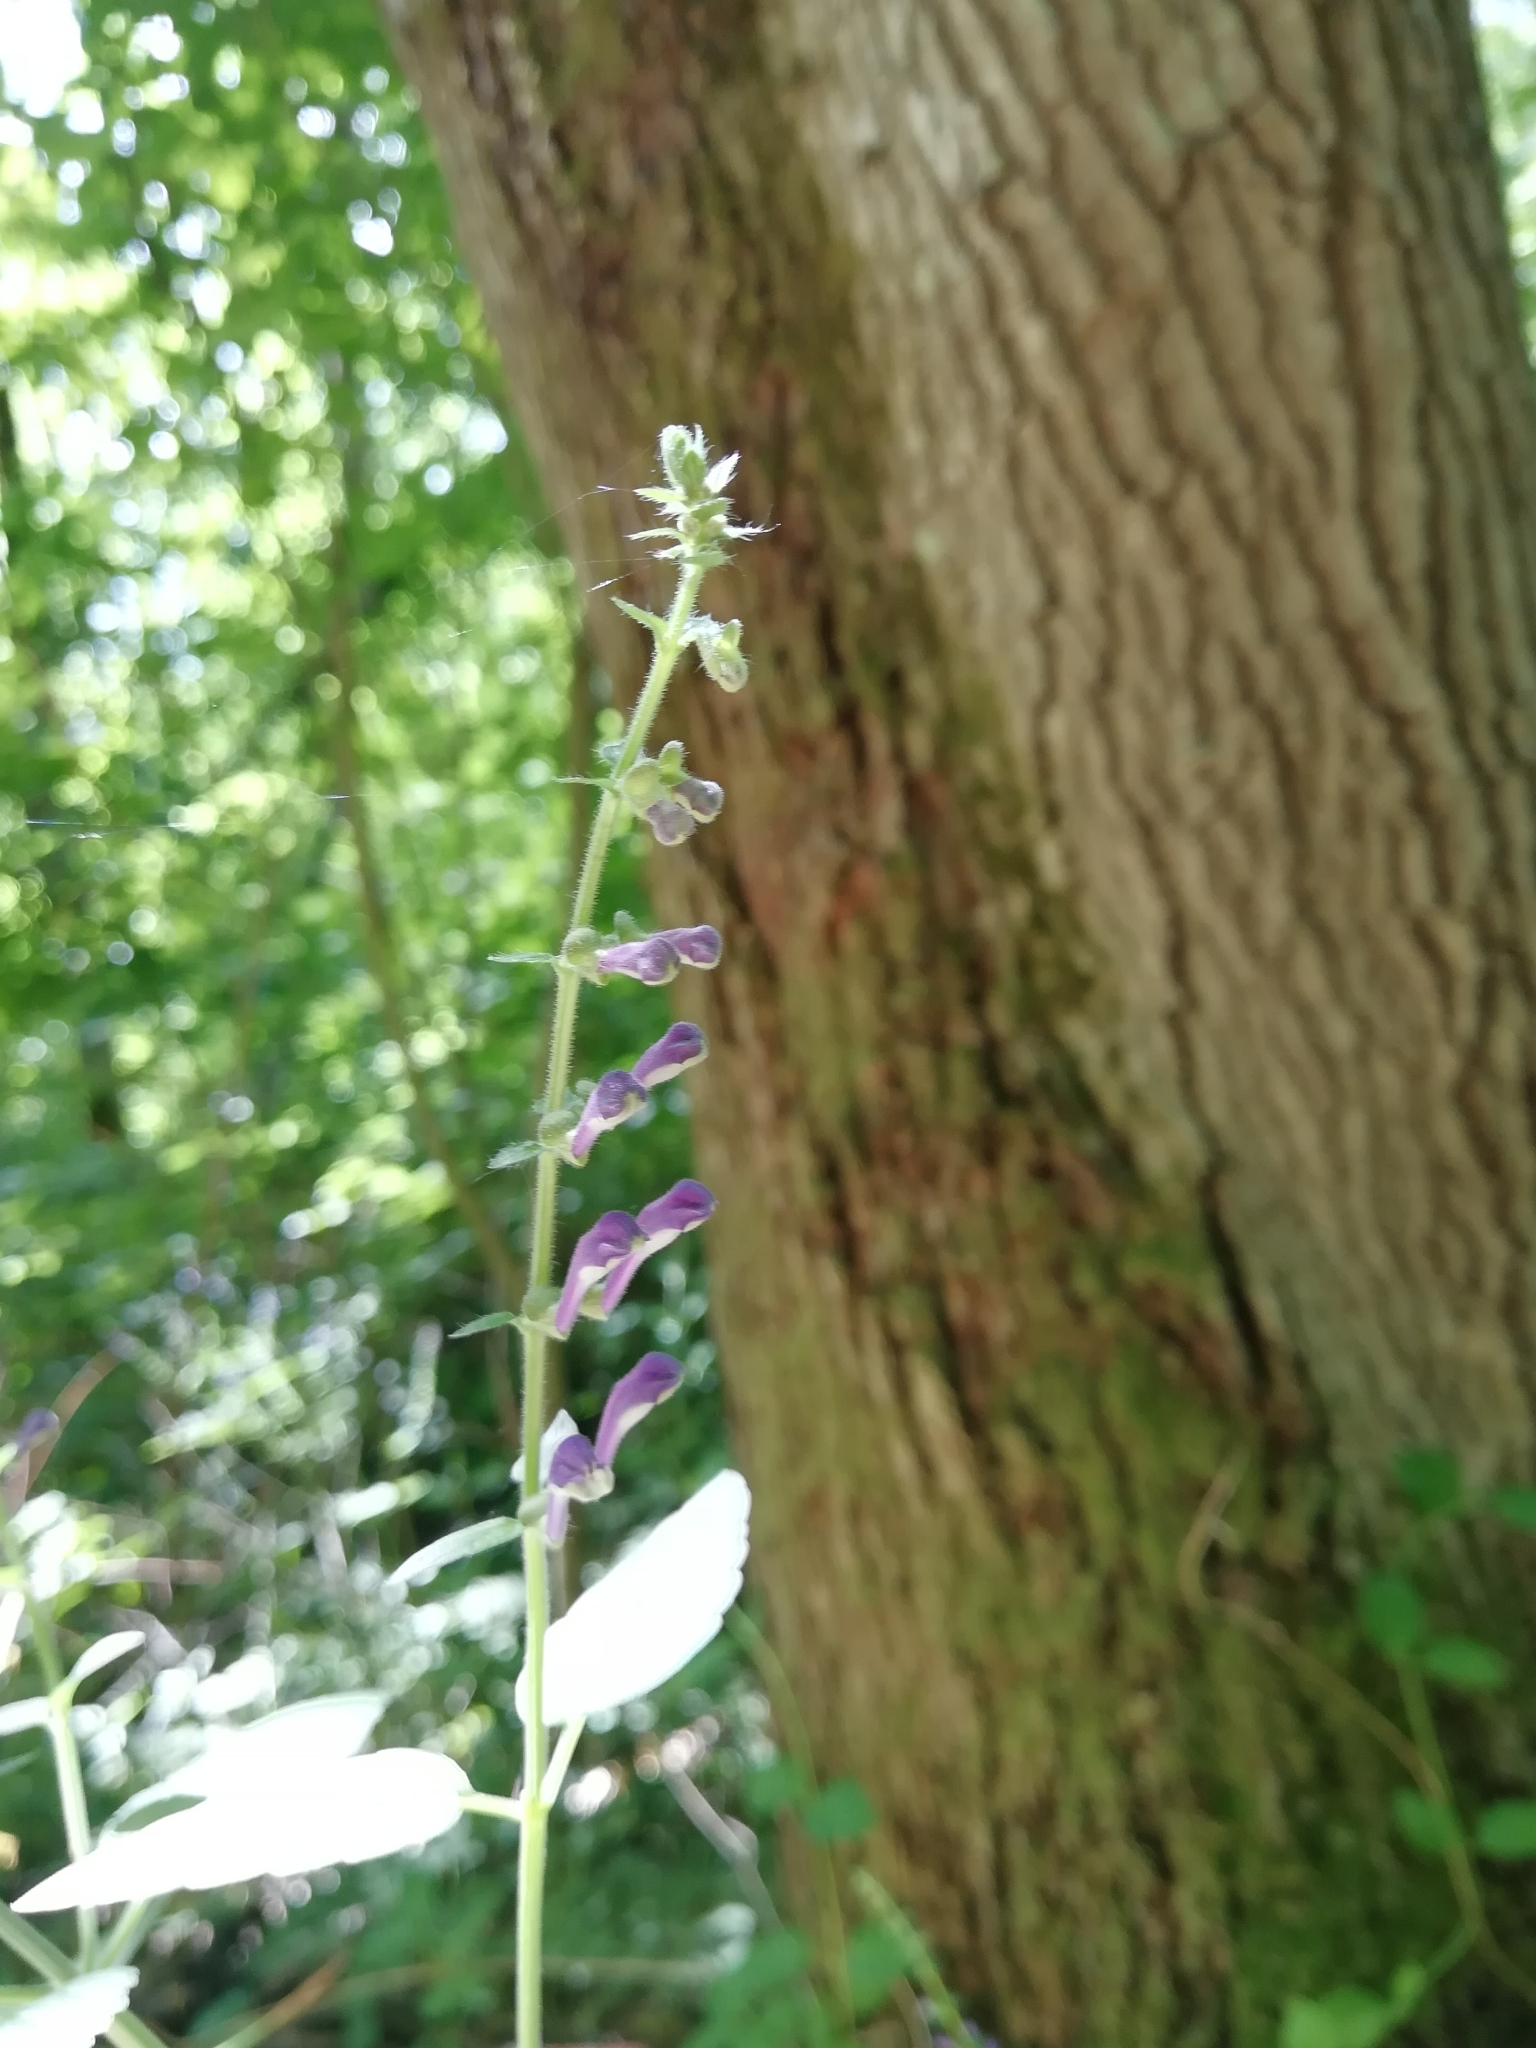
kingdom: Plantae
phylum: Tracheophyta
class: Magnoliopsida
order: Lamiales
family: Lamiaceae
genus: Scutellaria
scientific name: Scutellaria altissima
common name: Somerset skullcap
